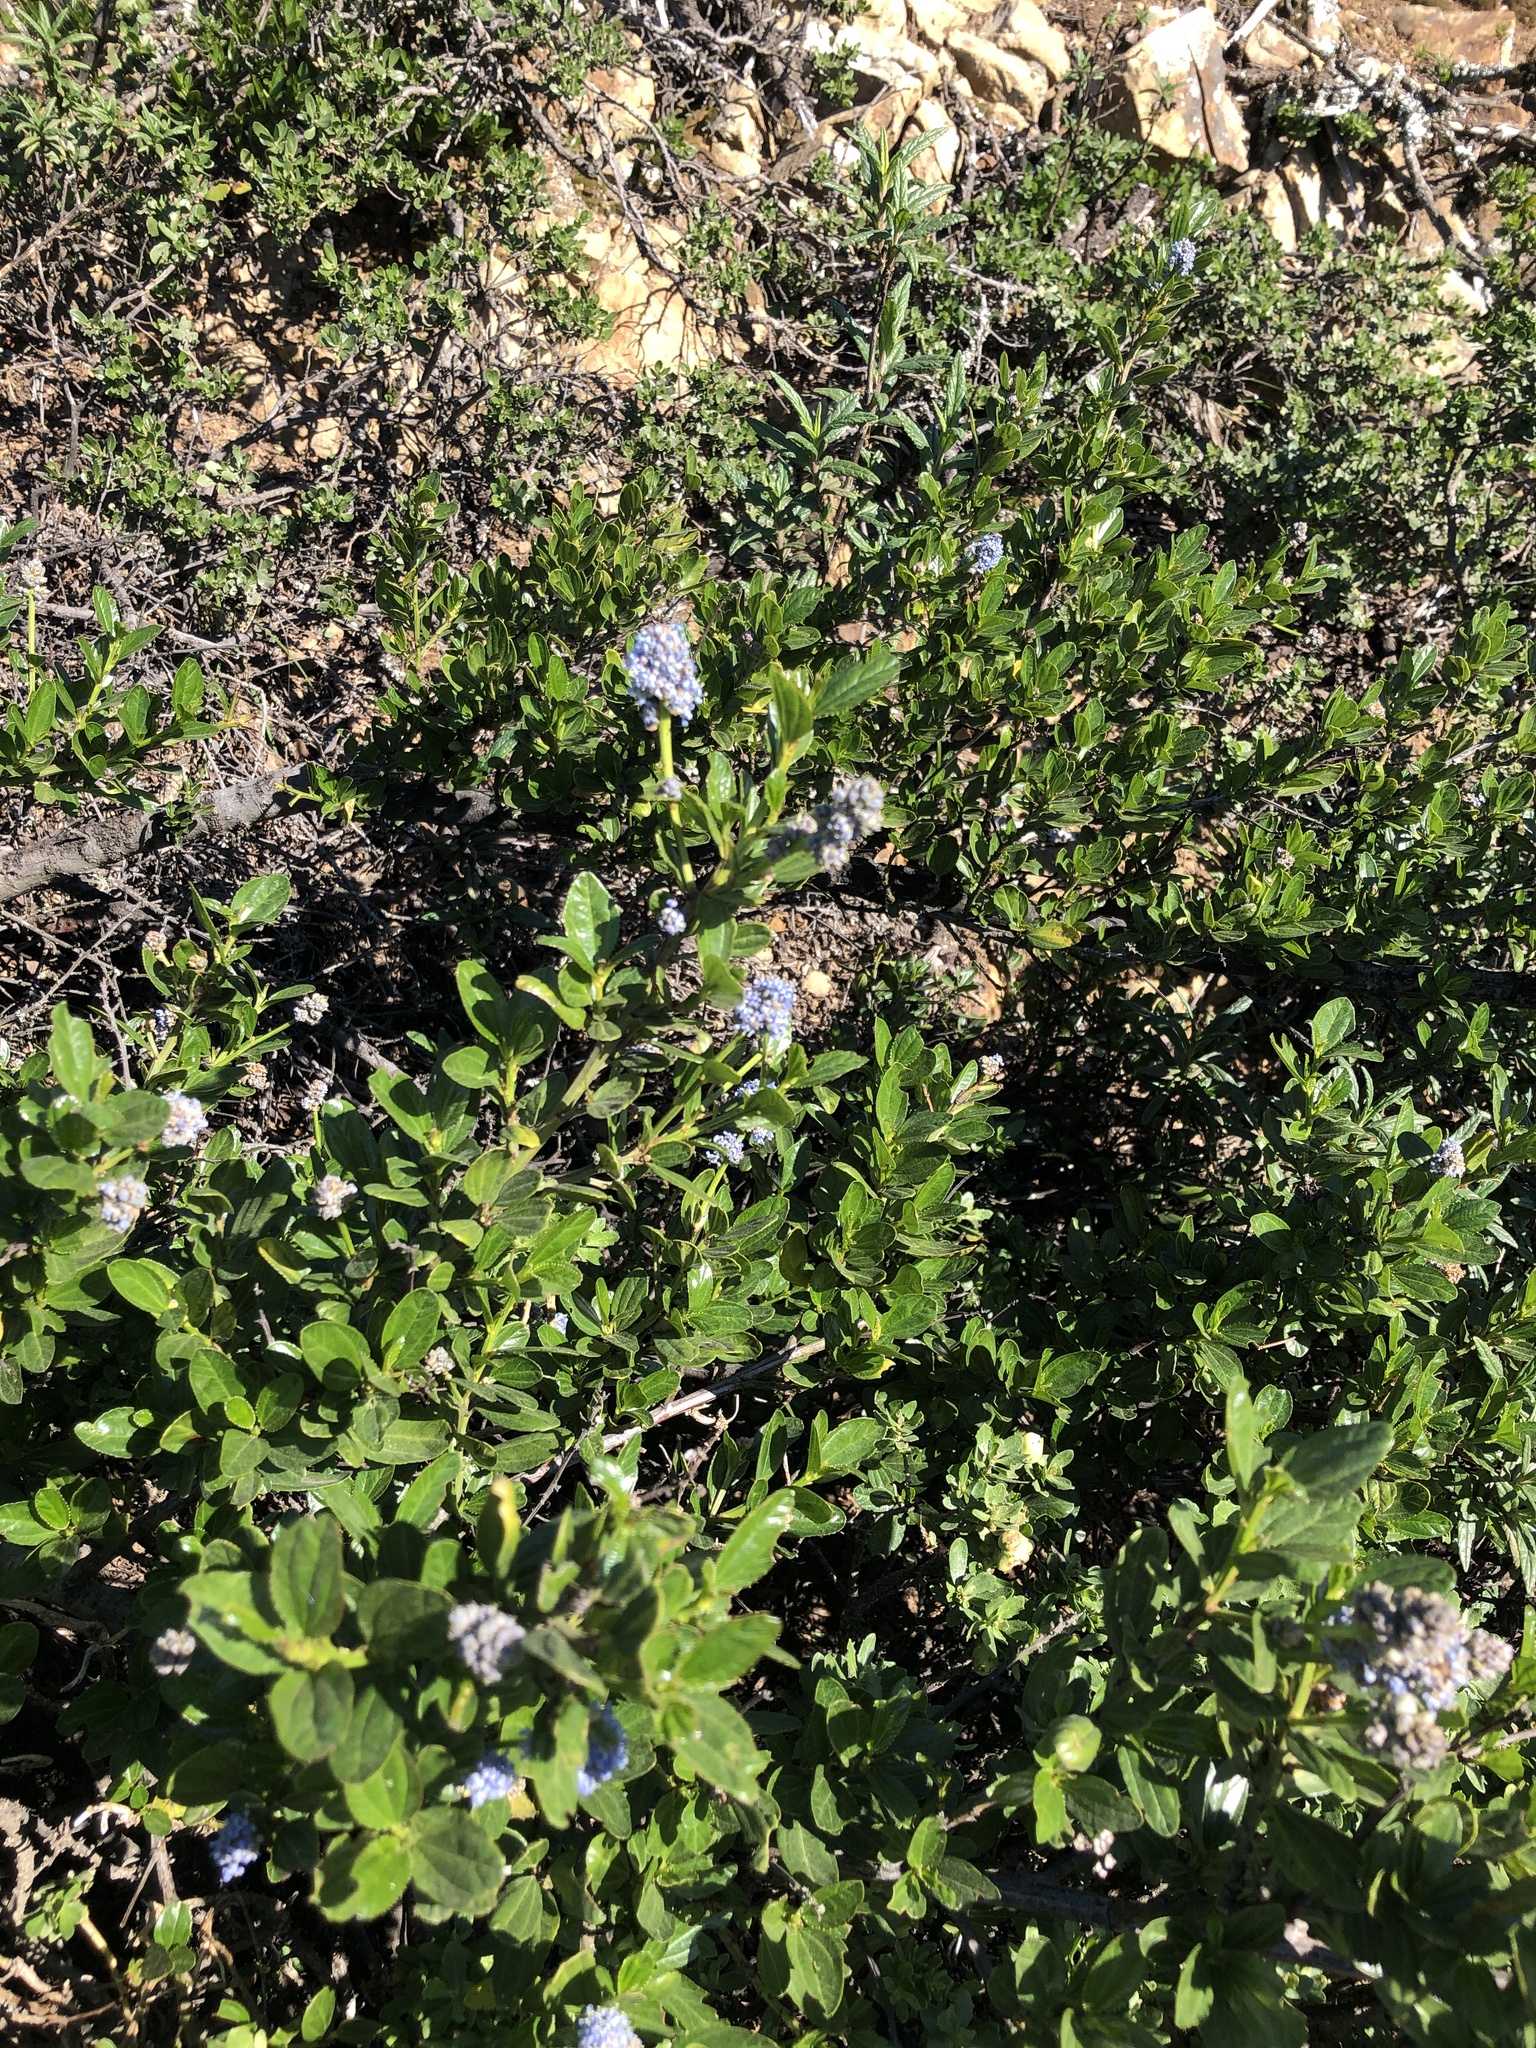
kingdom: Plantae
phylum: Tracheophyta
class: Magnoliopsida
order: Rosales
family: Rhamnaceae
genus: Ceanothus
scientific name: Ceanothus thyrsiflorus
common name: California-lilac
